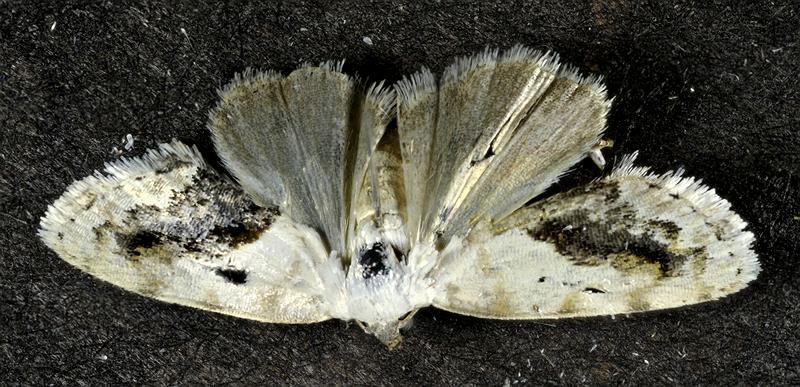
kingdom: Animalia
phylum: Arthropoda
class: Insecta
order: Lepidoptera
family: Noctuidae
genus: Acontia
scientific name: Acontia erastrioides
